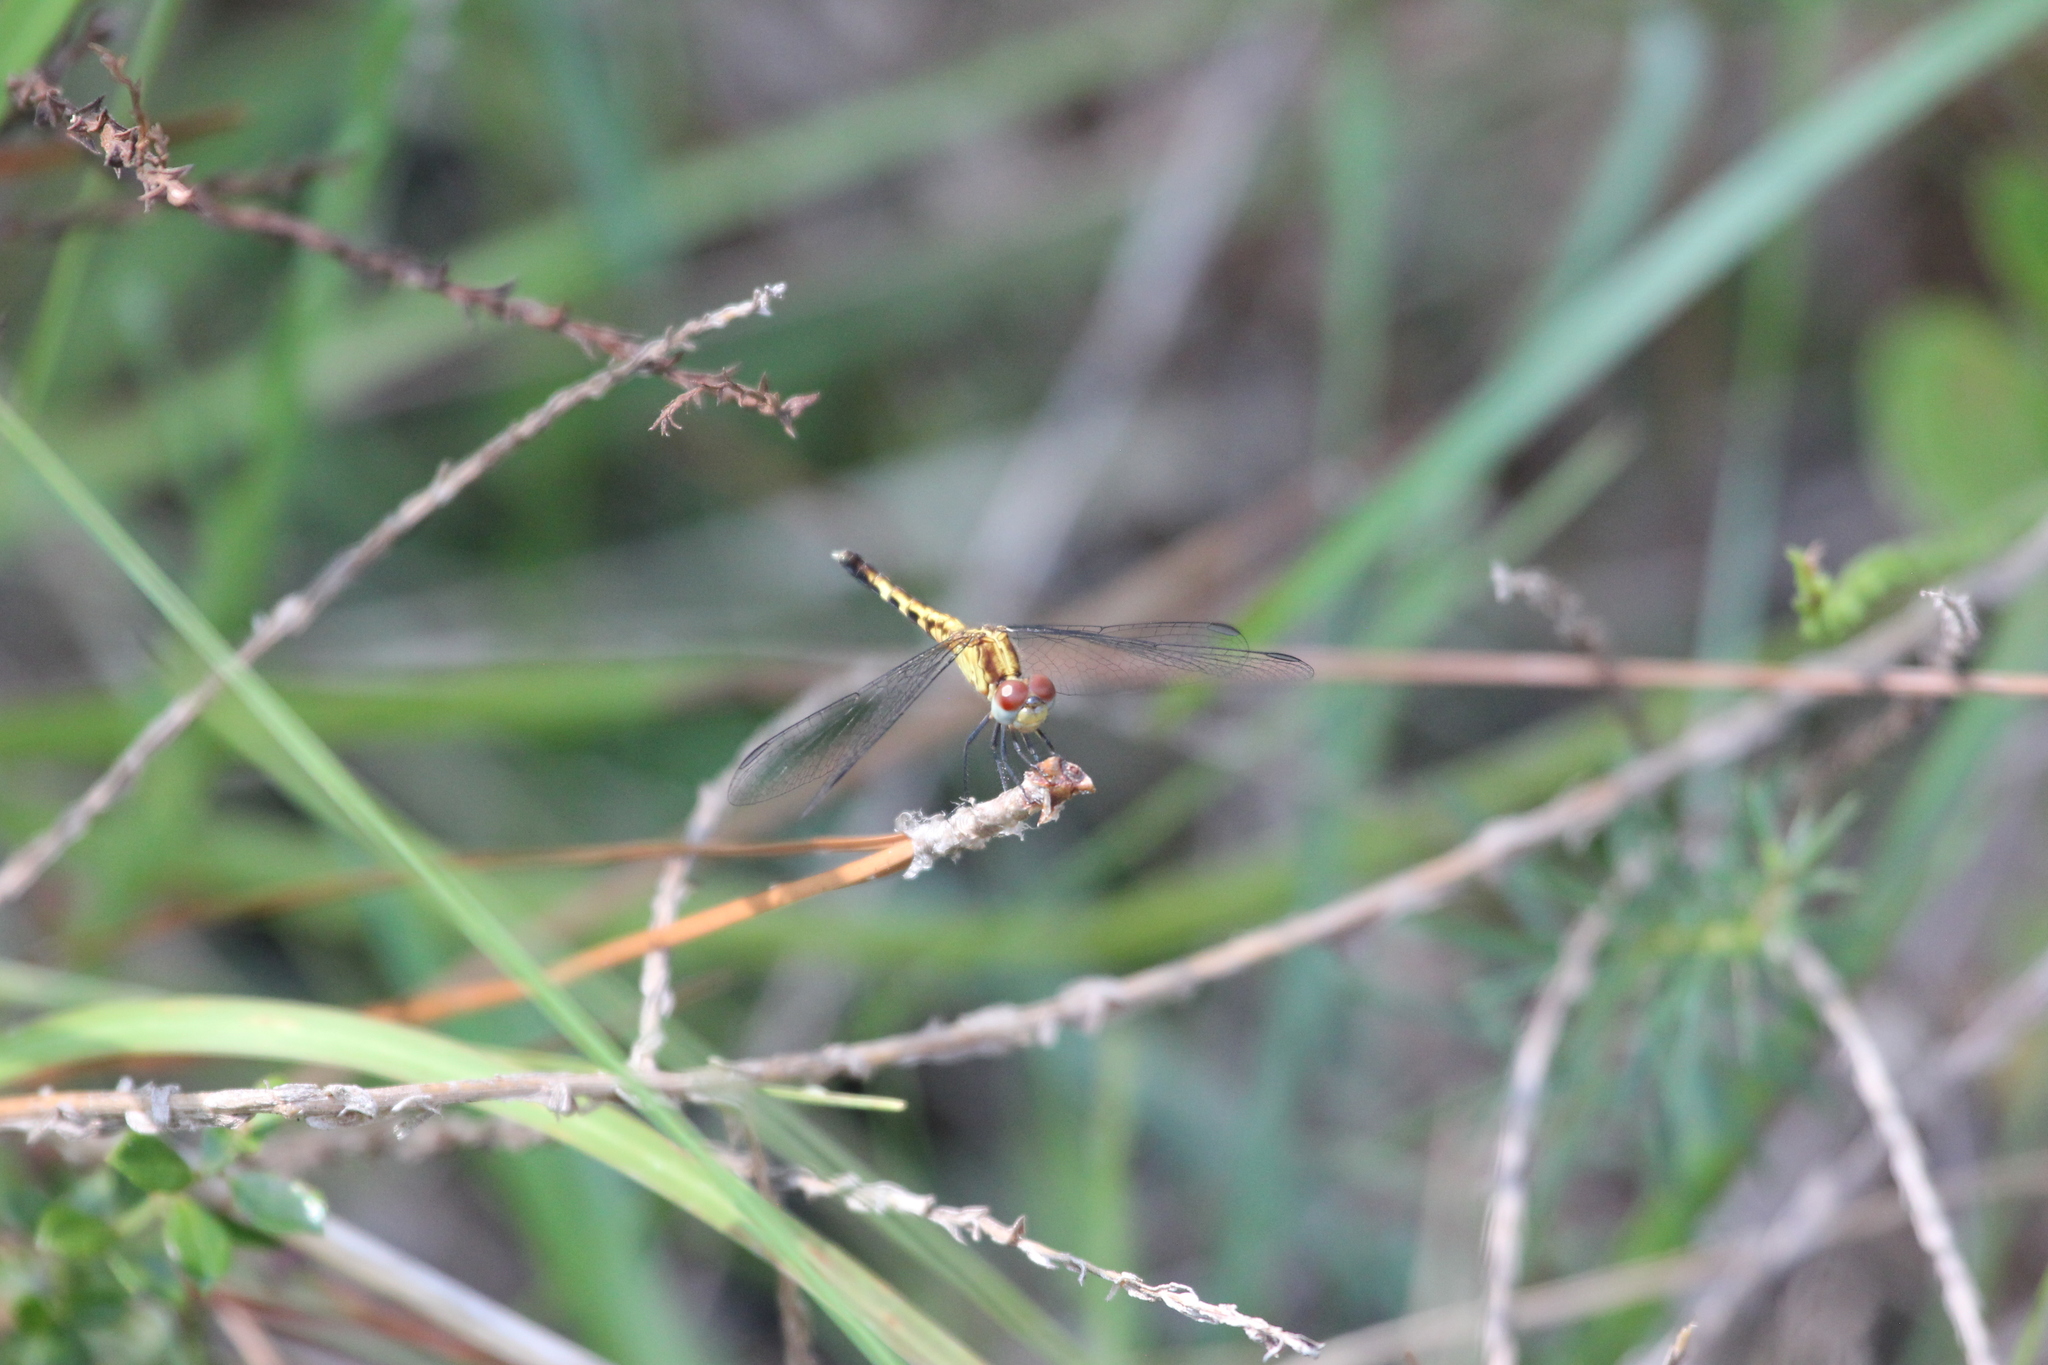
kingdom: Animalia
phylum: Arthropoda
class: Insecta
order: Odonata
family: Libellulidae
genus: Erythrodiplax
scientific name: Erythrodiplax minuscula
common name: Little blue dragonlet
